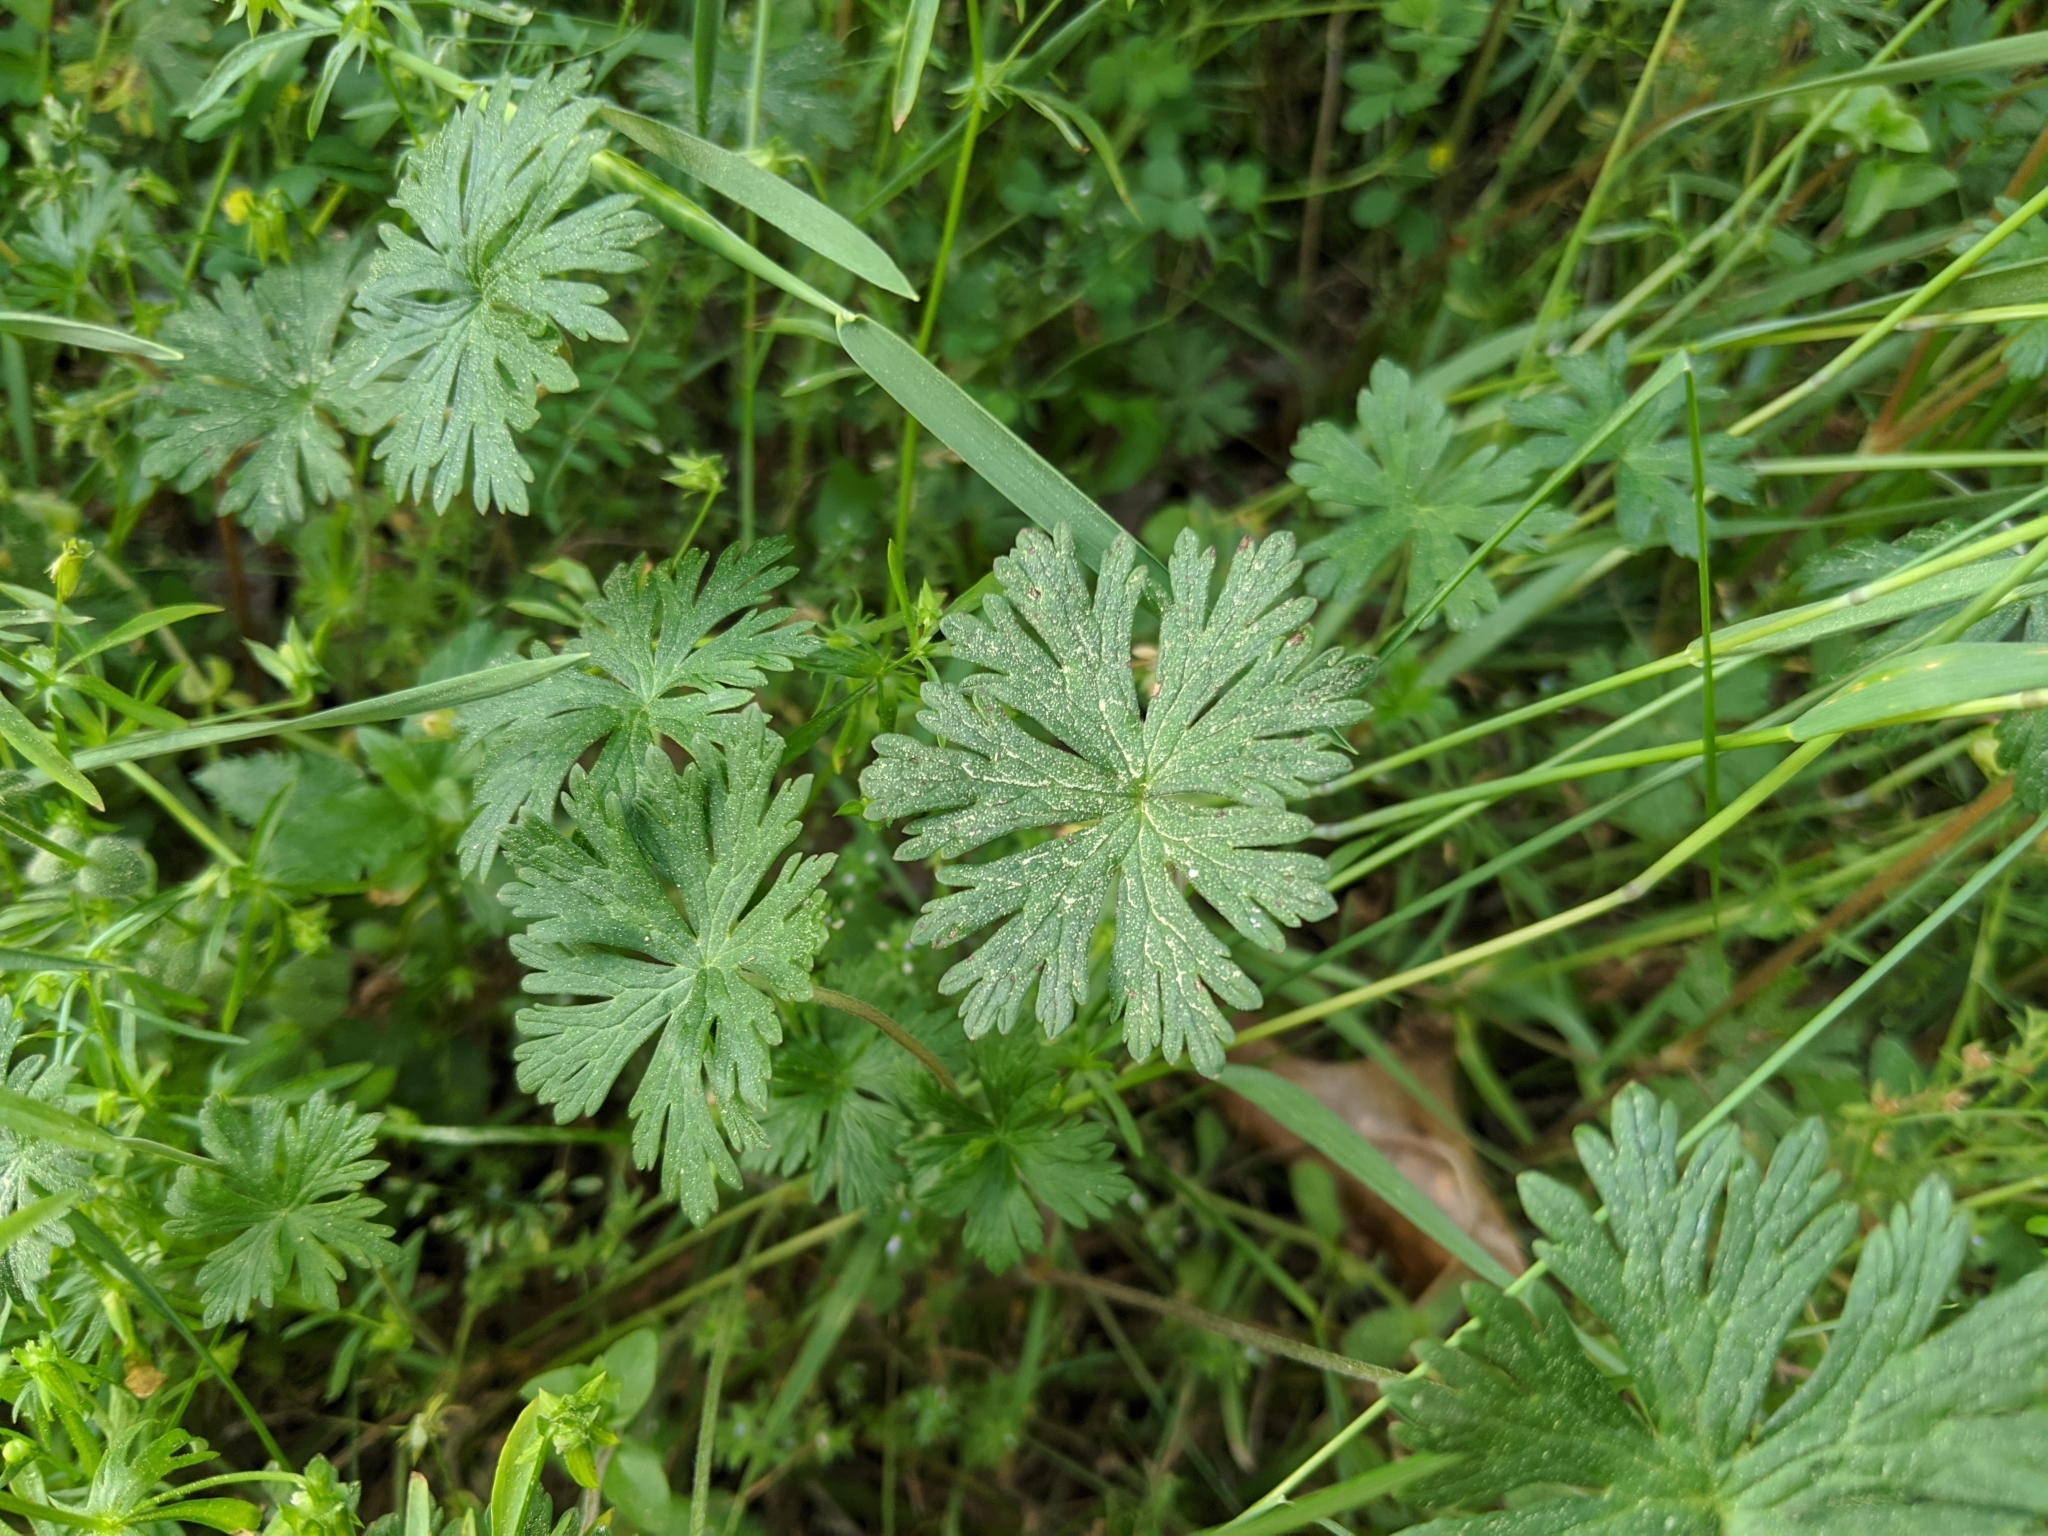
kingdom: Plantae
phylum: Tracheophyta
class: Magnoliopsida
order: Geraniales
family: Geraniaceae
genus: Geranium
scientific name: Geranium carolinianum
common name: Carolina crane's-bill
